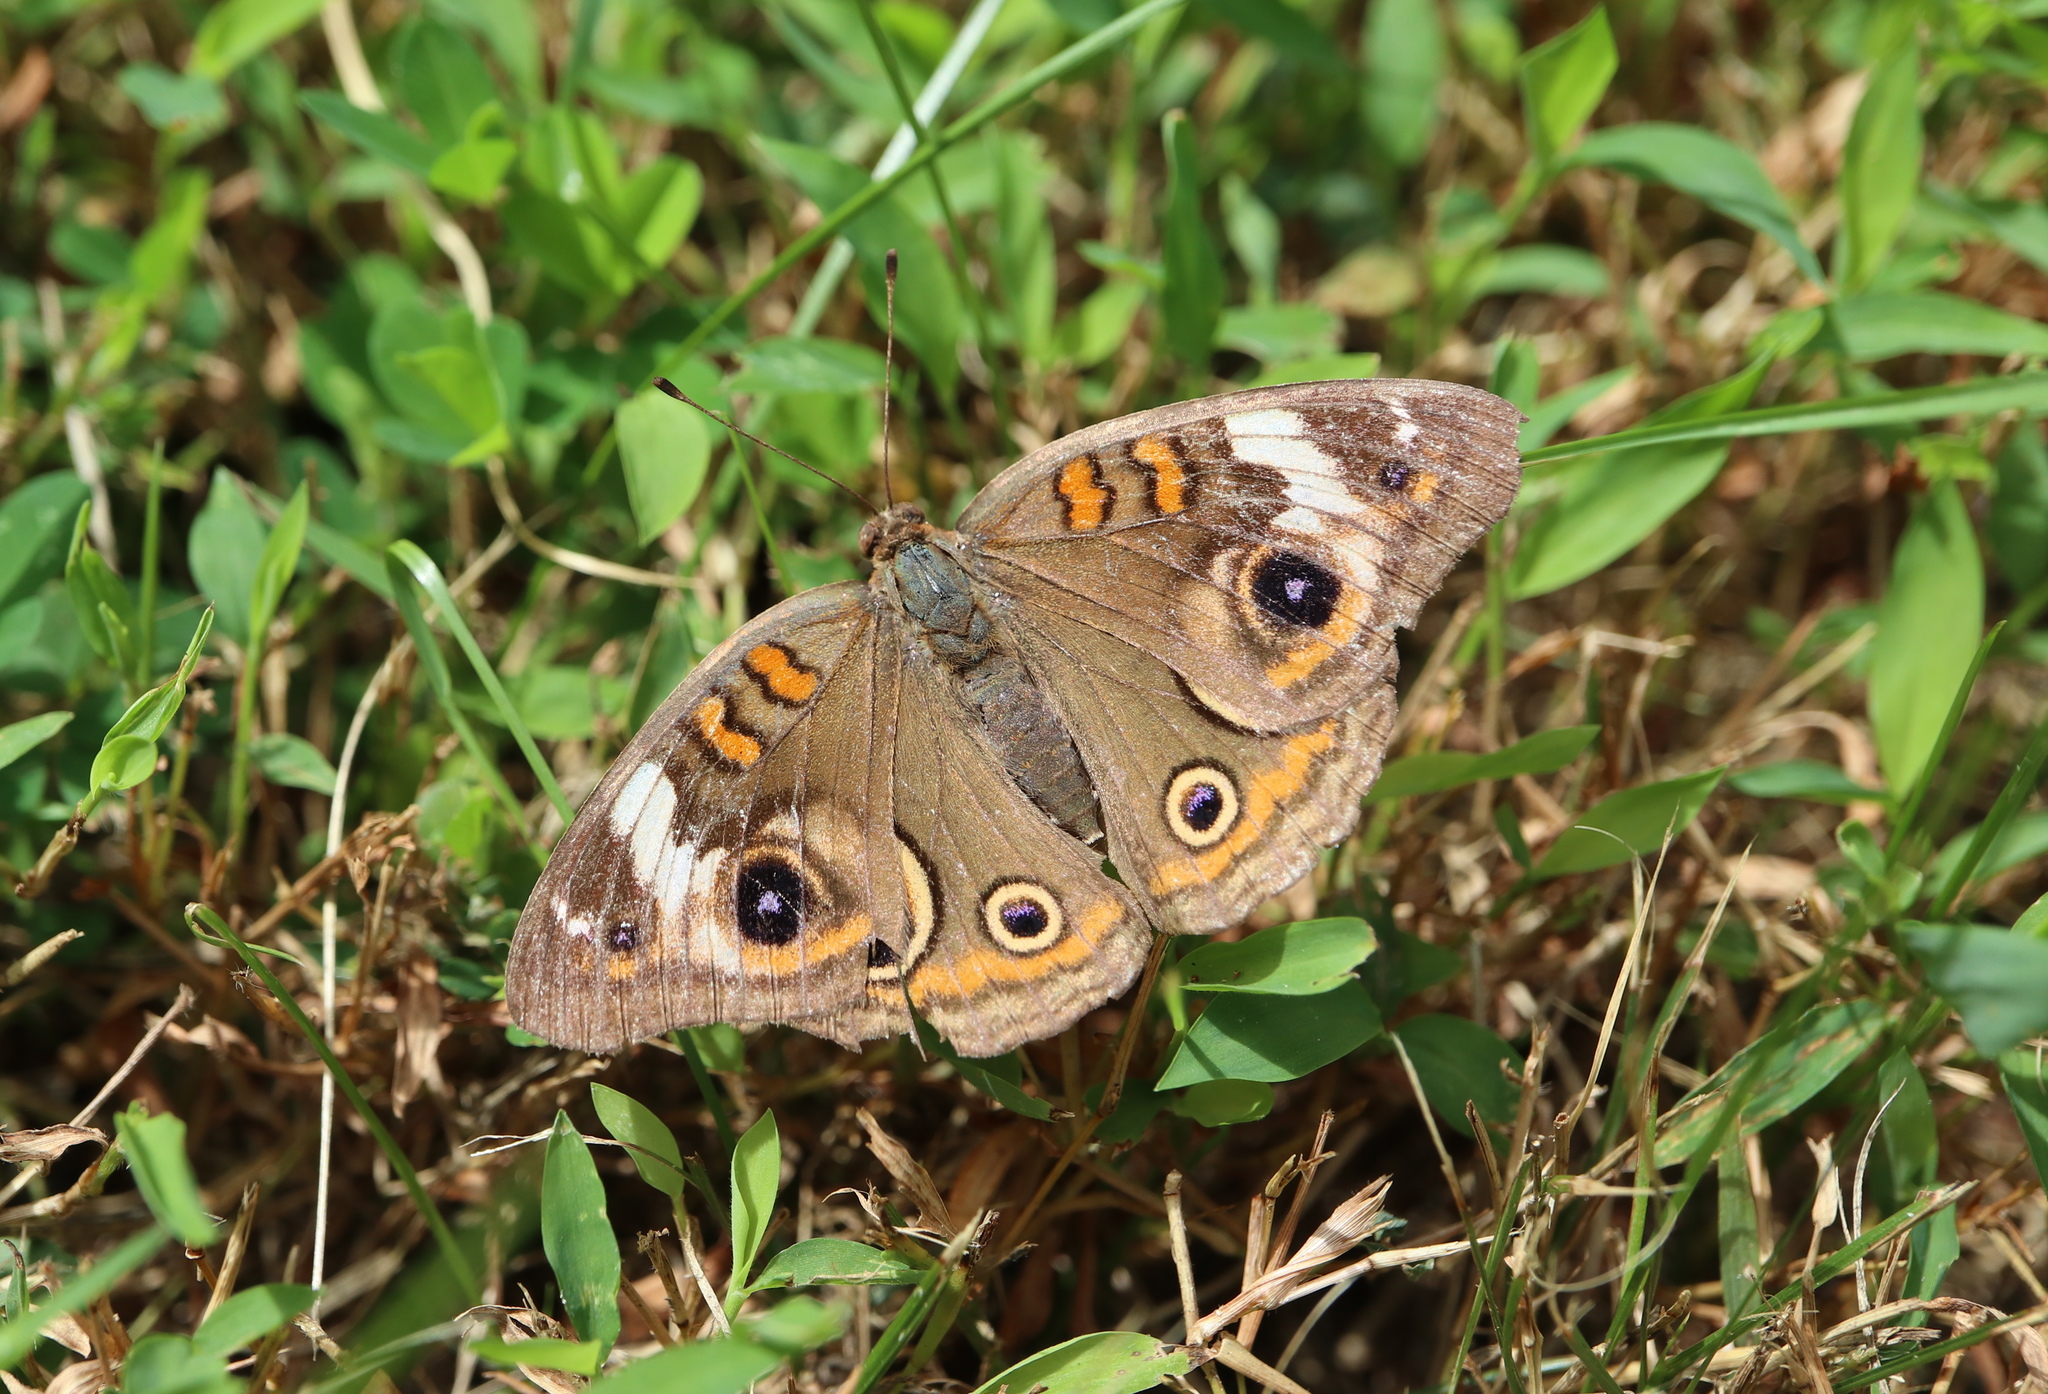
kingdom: Animalia
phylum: Arthropoda
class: Insecta
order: Lepidoptera
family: Nymphalidae
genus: Junonia
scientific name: Junonia coenia
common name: Common buckeye
